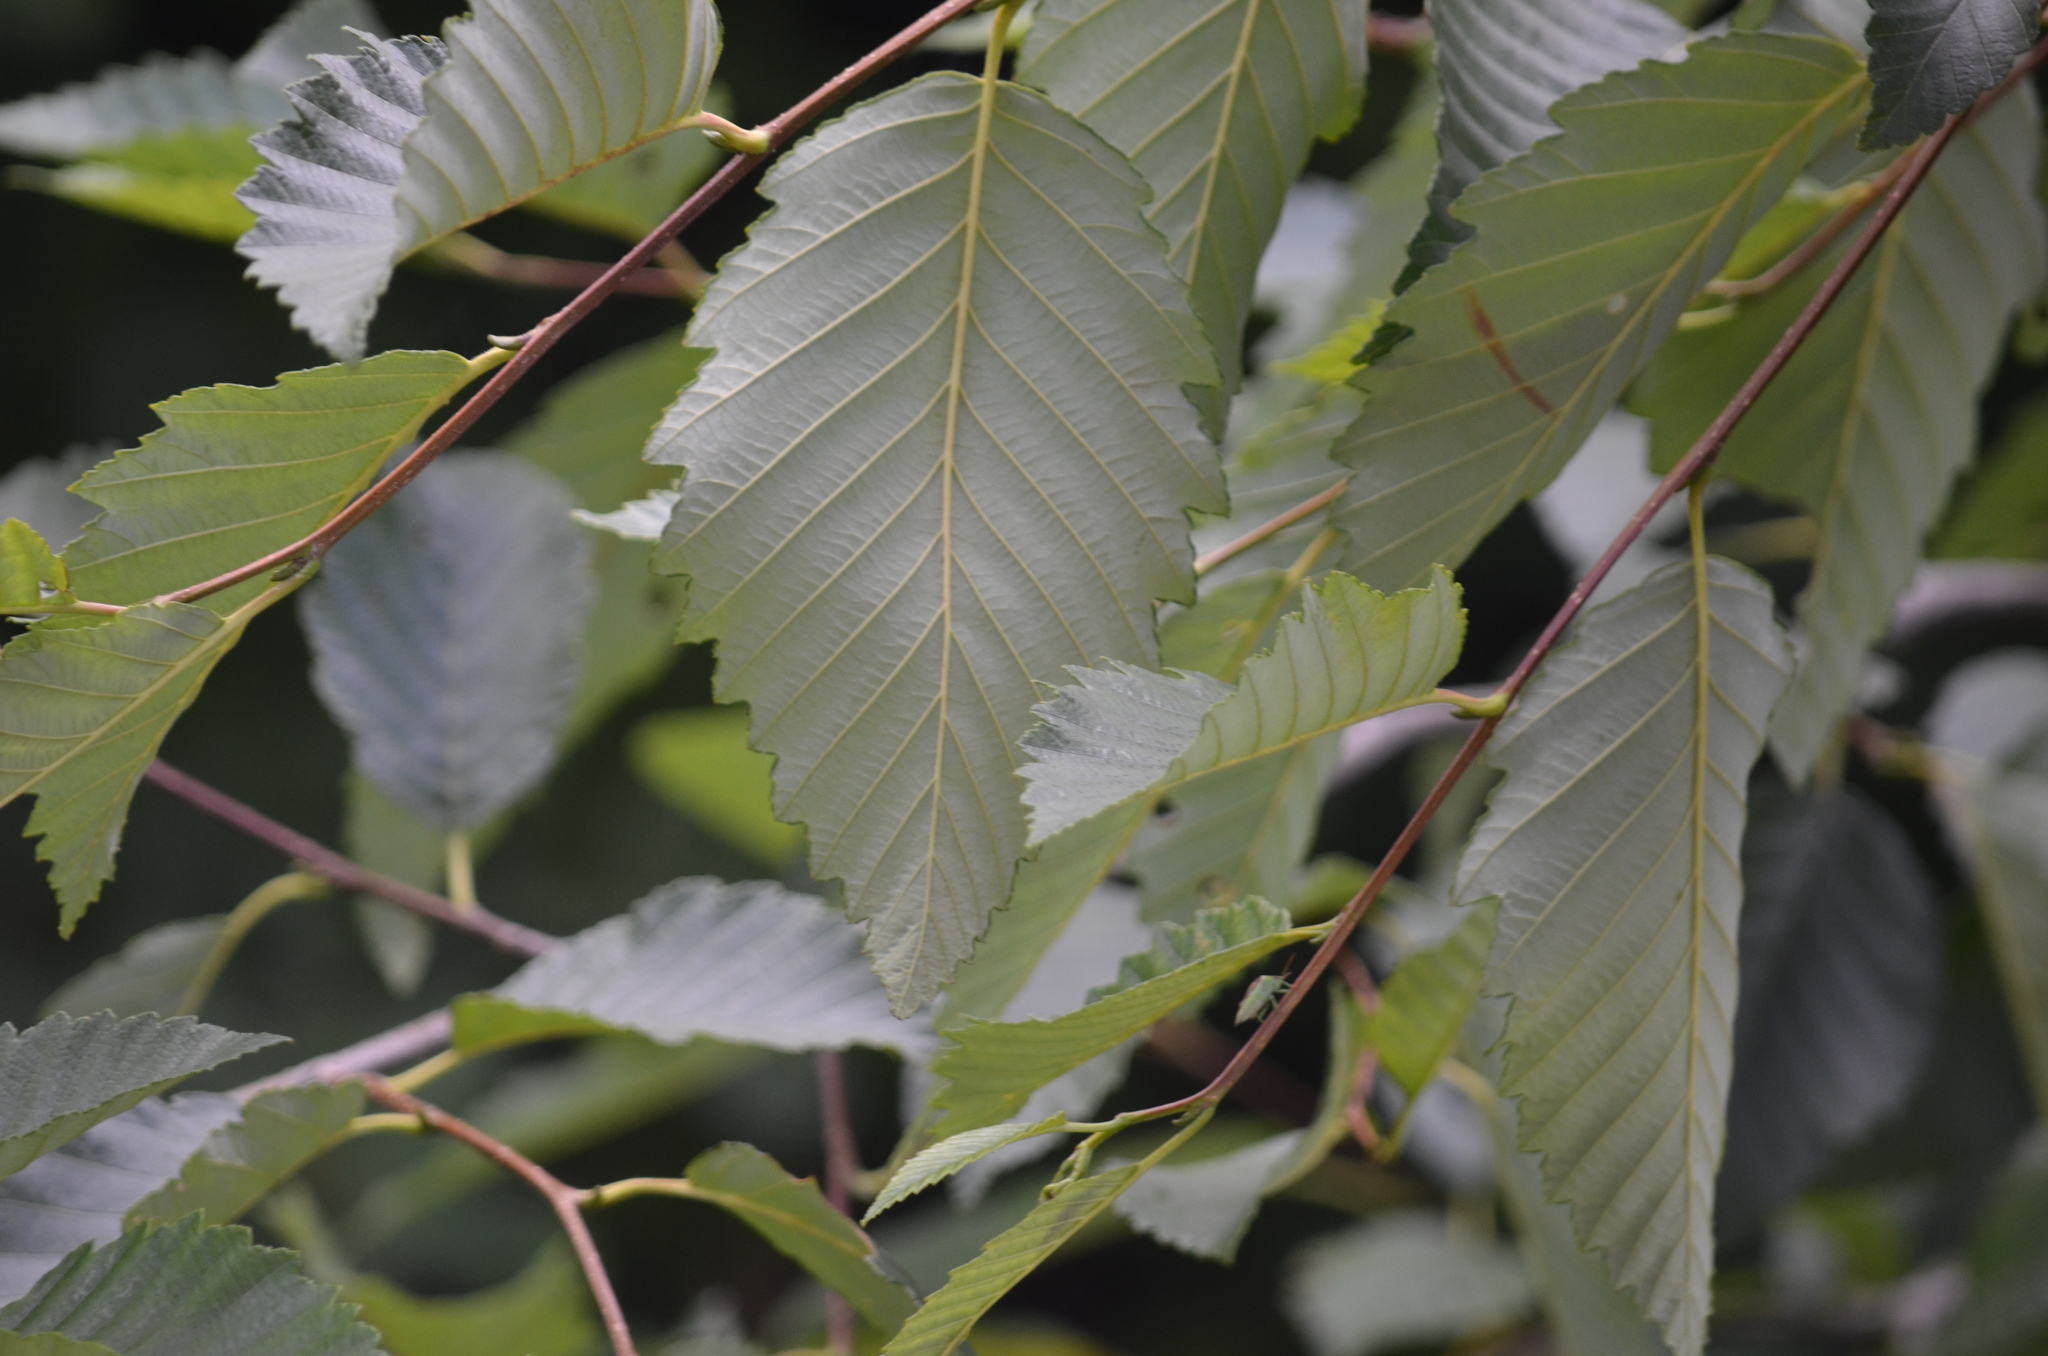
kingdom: Plantae
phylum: Tracheophyta
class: Magnoliopsida
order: Fagales
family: Betulaceae
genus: Alnus
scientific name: Alnus rubra
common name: Red alder
